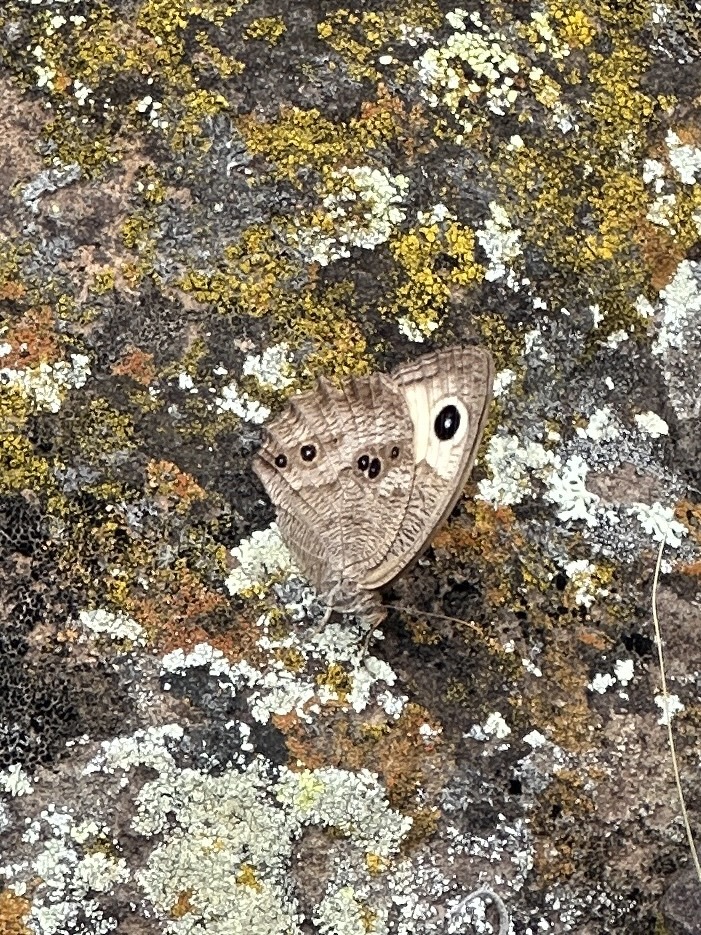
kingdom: Animalia
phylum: Arthropoda
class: Insecta
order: Lepidoptera
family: Nymphalidae
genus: Cercyonis
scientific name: Cercyonis pegala
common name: Common wood-nymph
